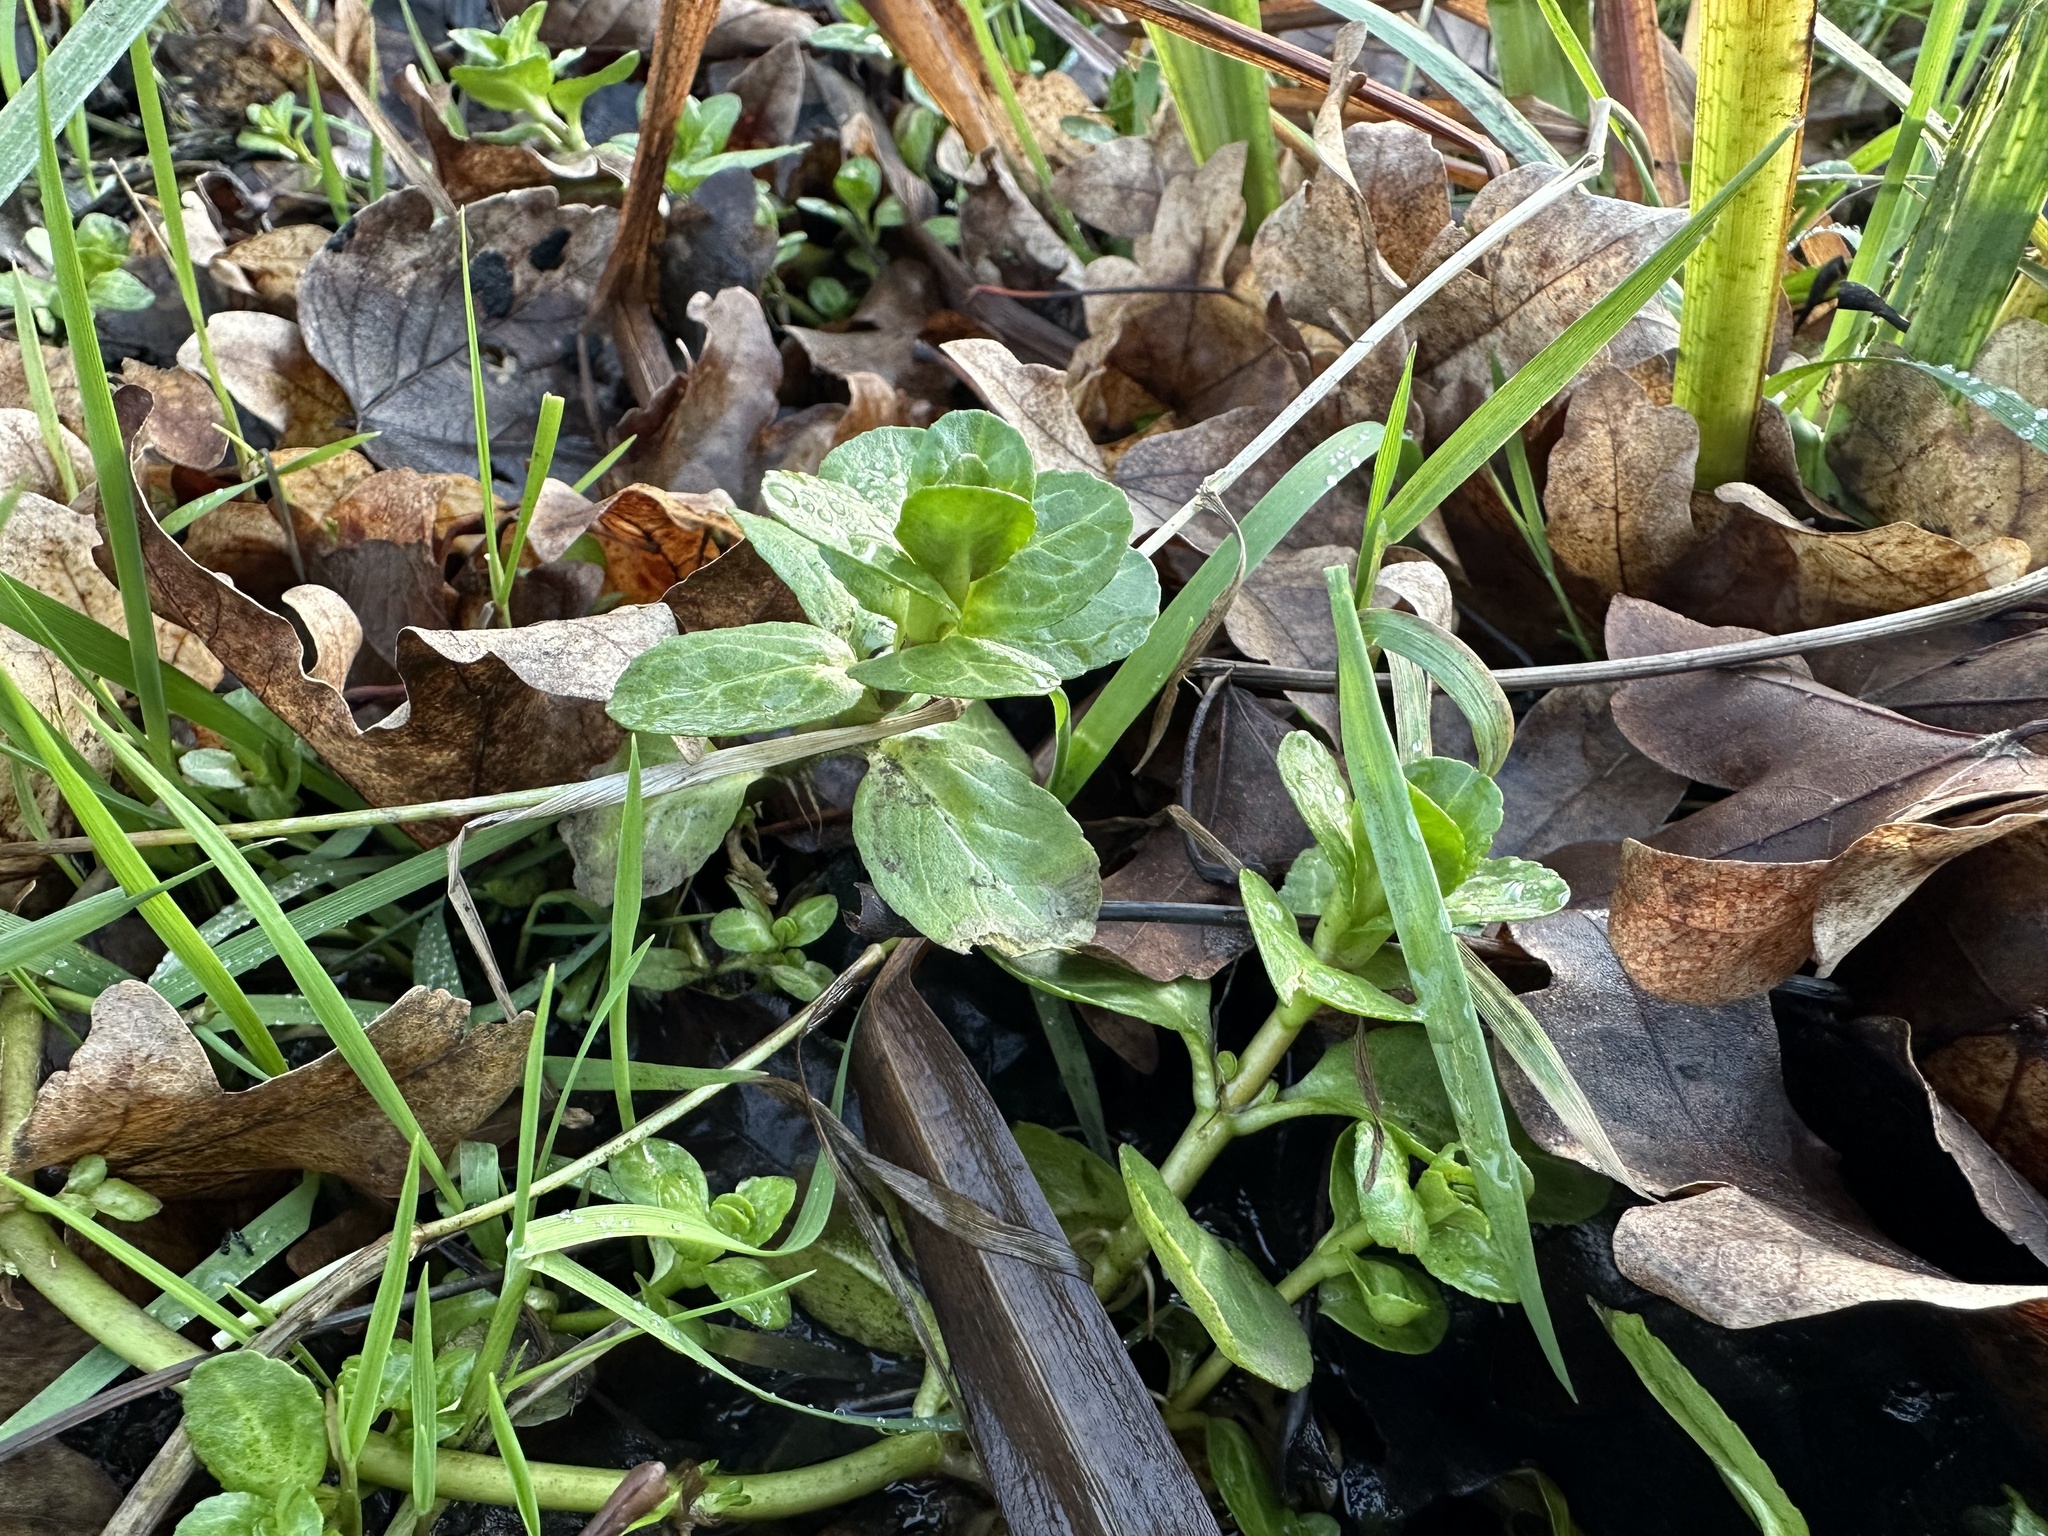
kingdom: Plantae
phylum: Tracheophyta
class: Magnoliopsida
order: Lamiales
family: Plantaginaceae
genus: Veronica
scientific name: Veronica beccabunga
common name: Brooklime
